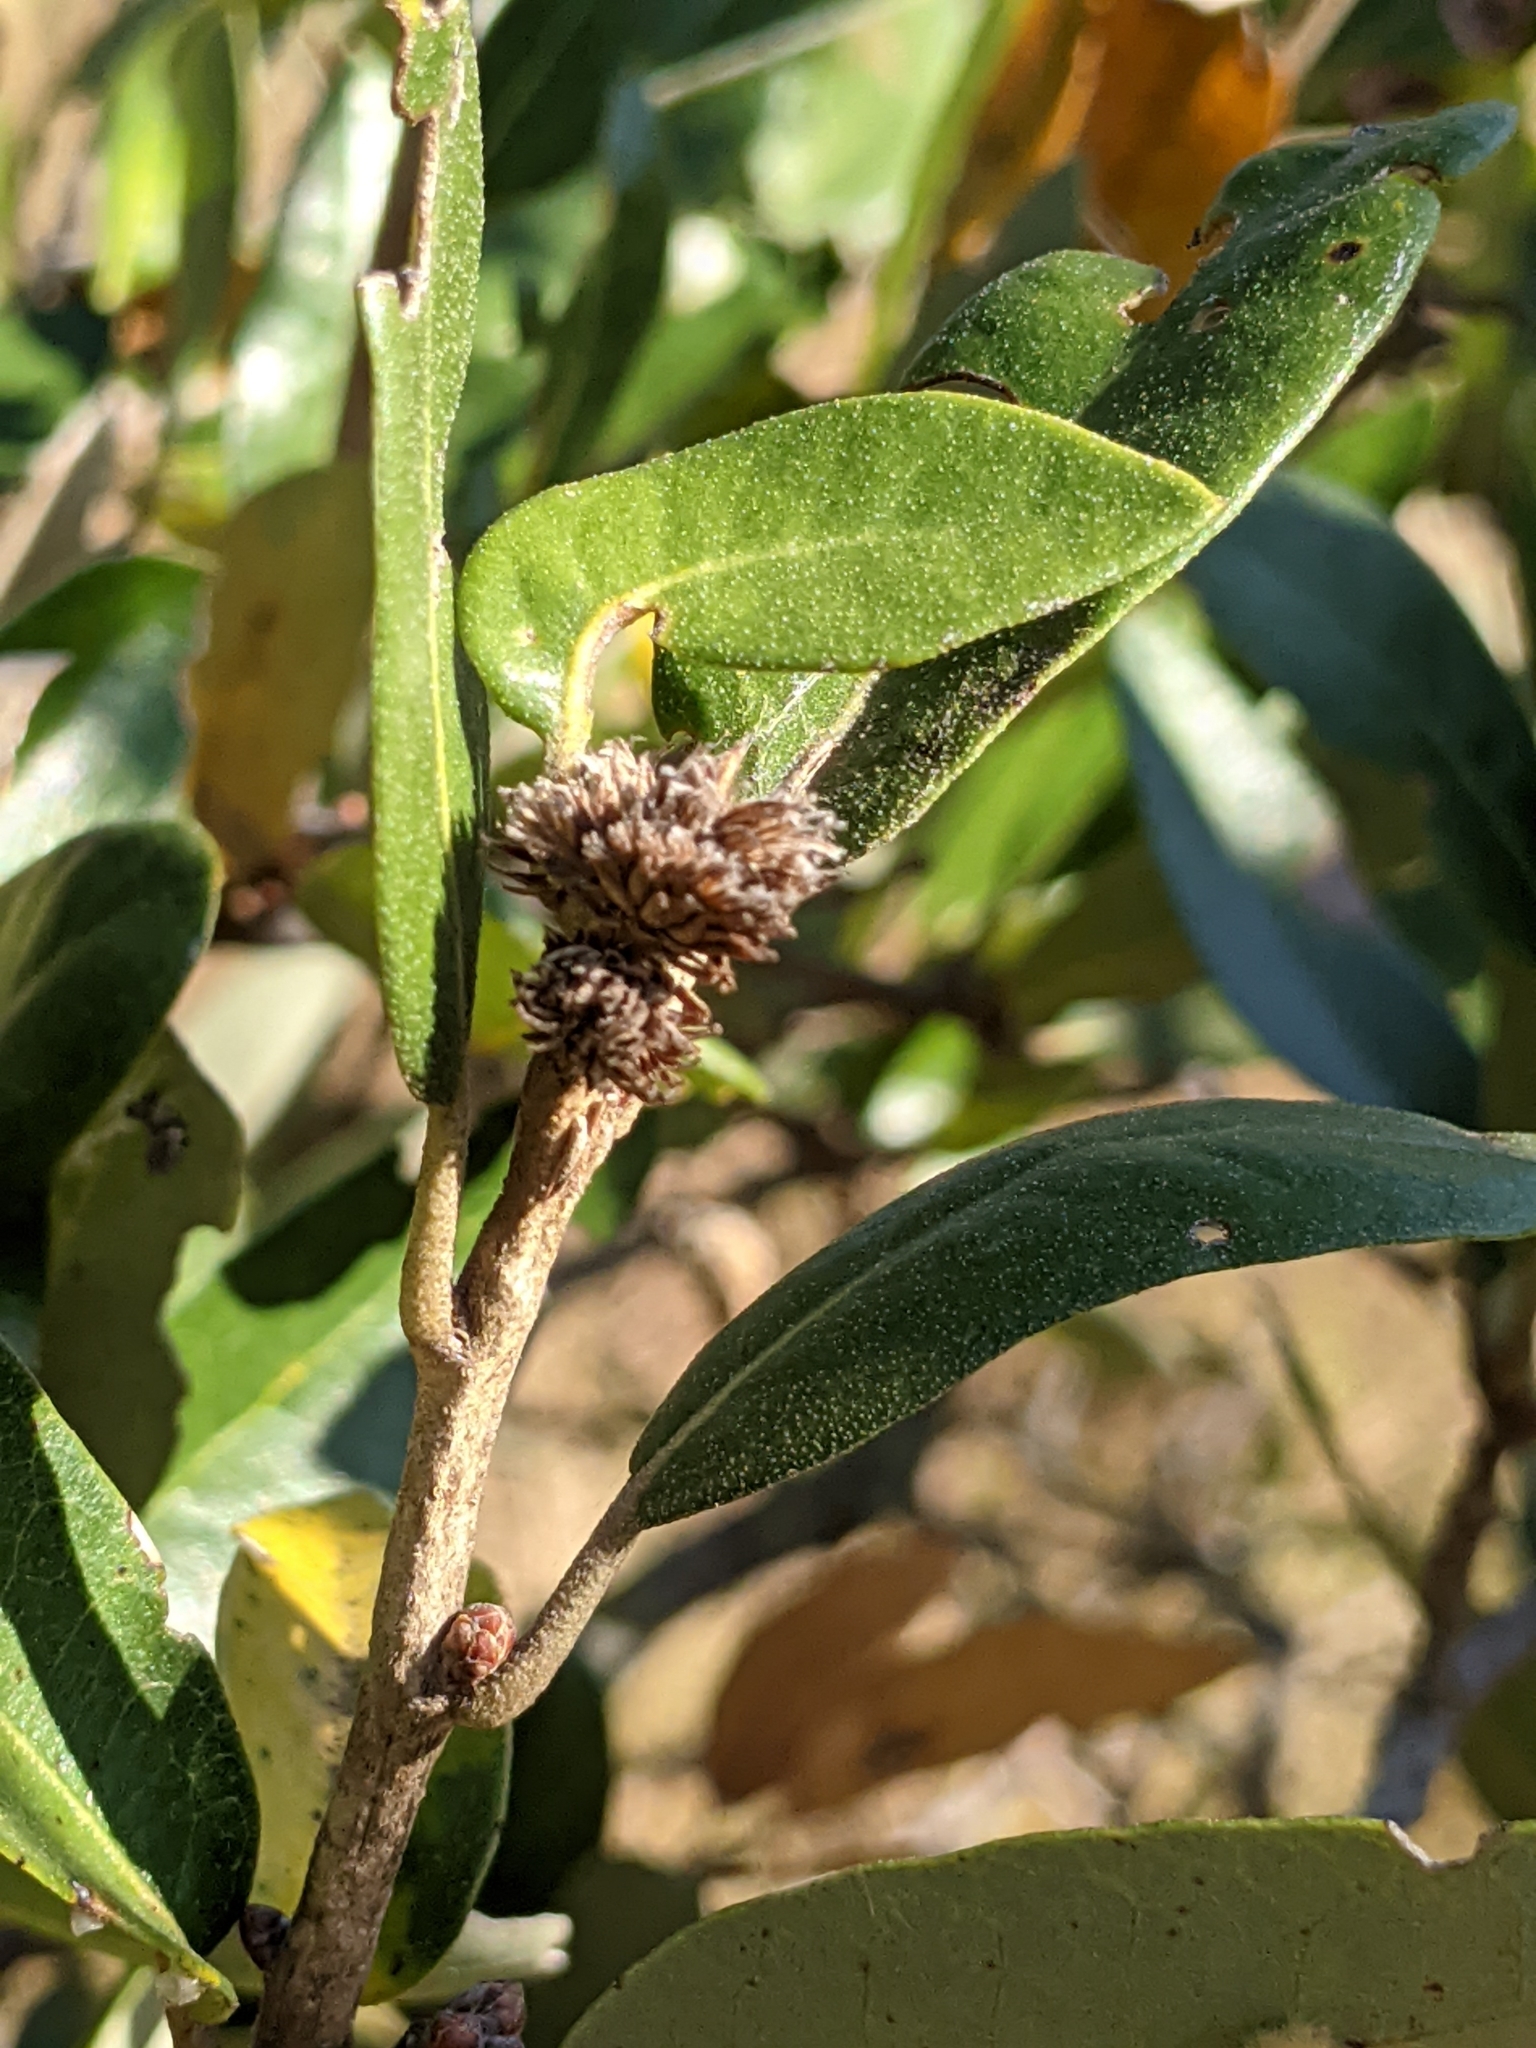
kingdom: Animalia
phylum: Arthropoda
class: Insecta
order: Hymenoptera
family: Cynipidae
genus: Andricus
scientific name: Andricus quercusfoliatus
